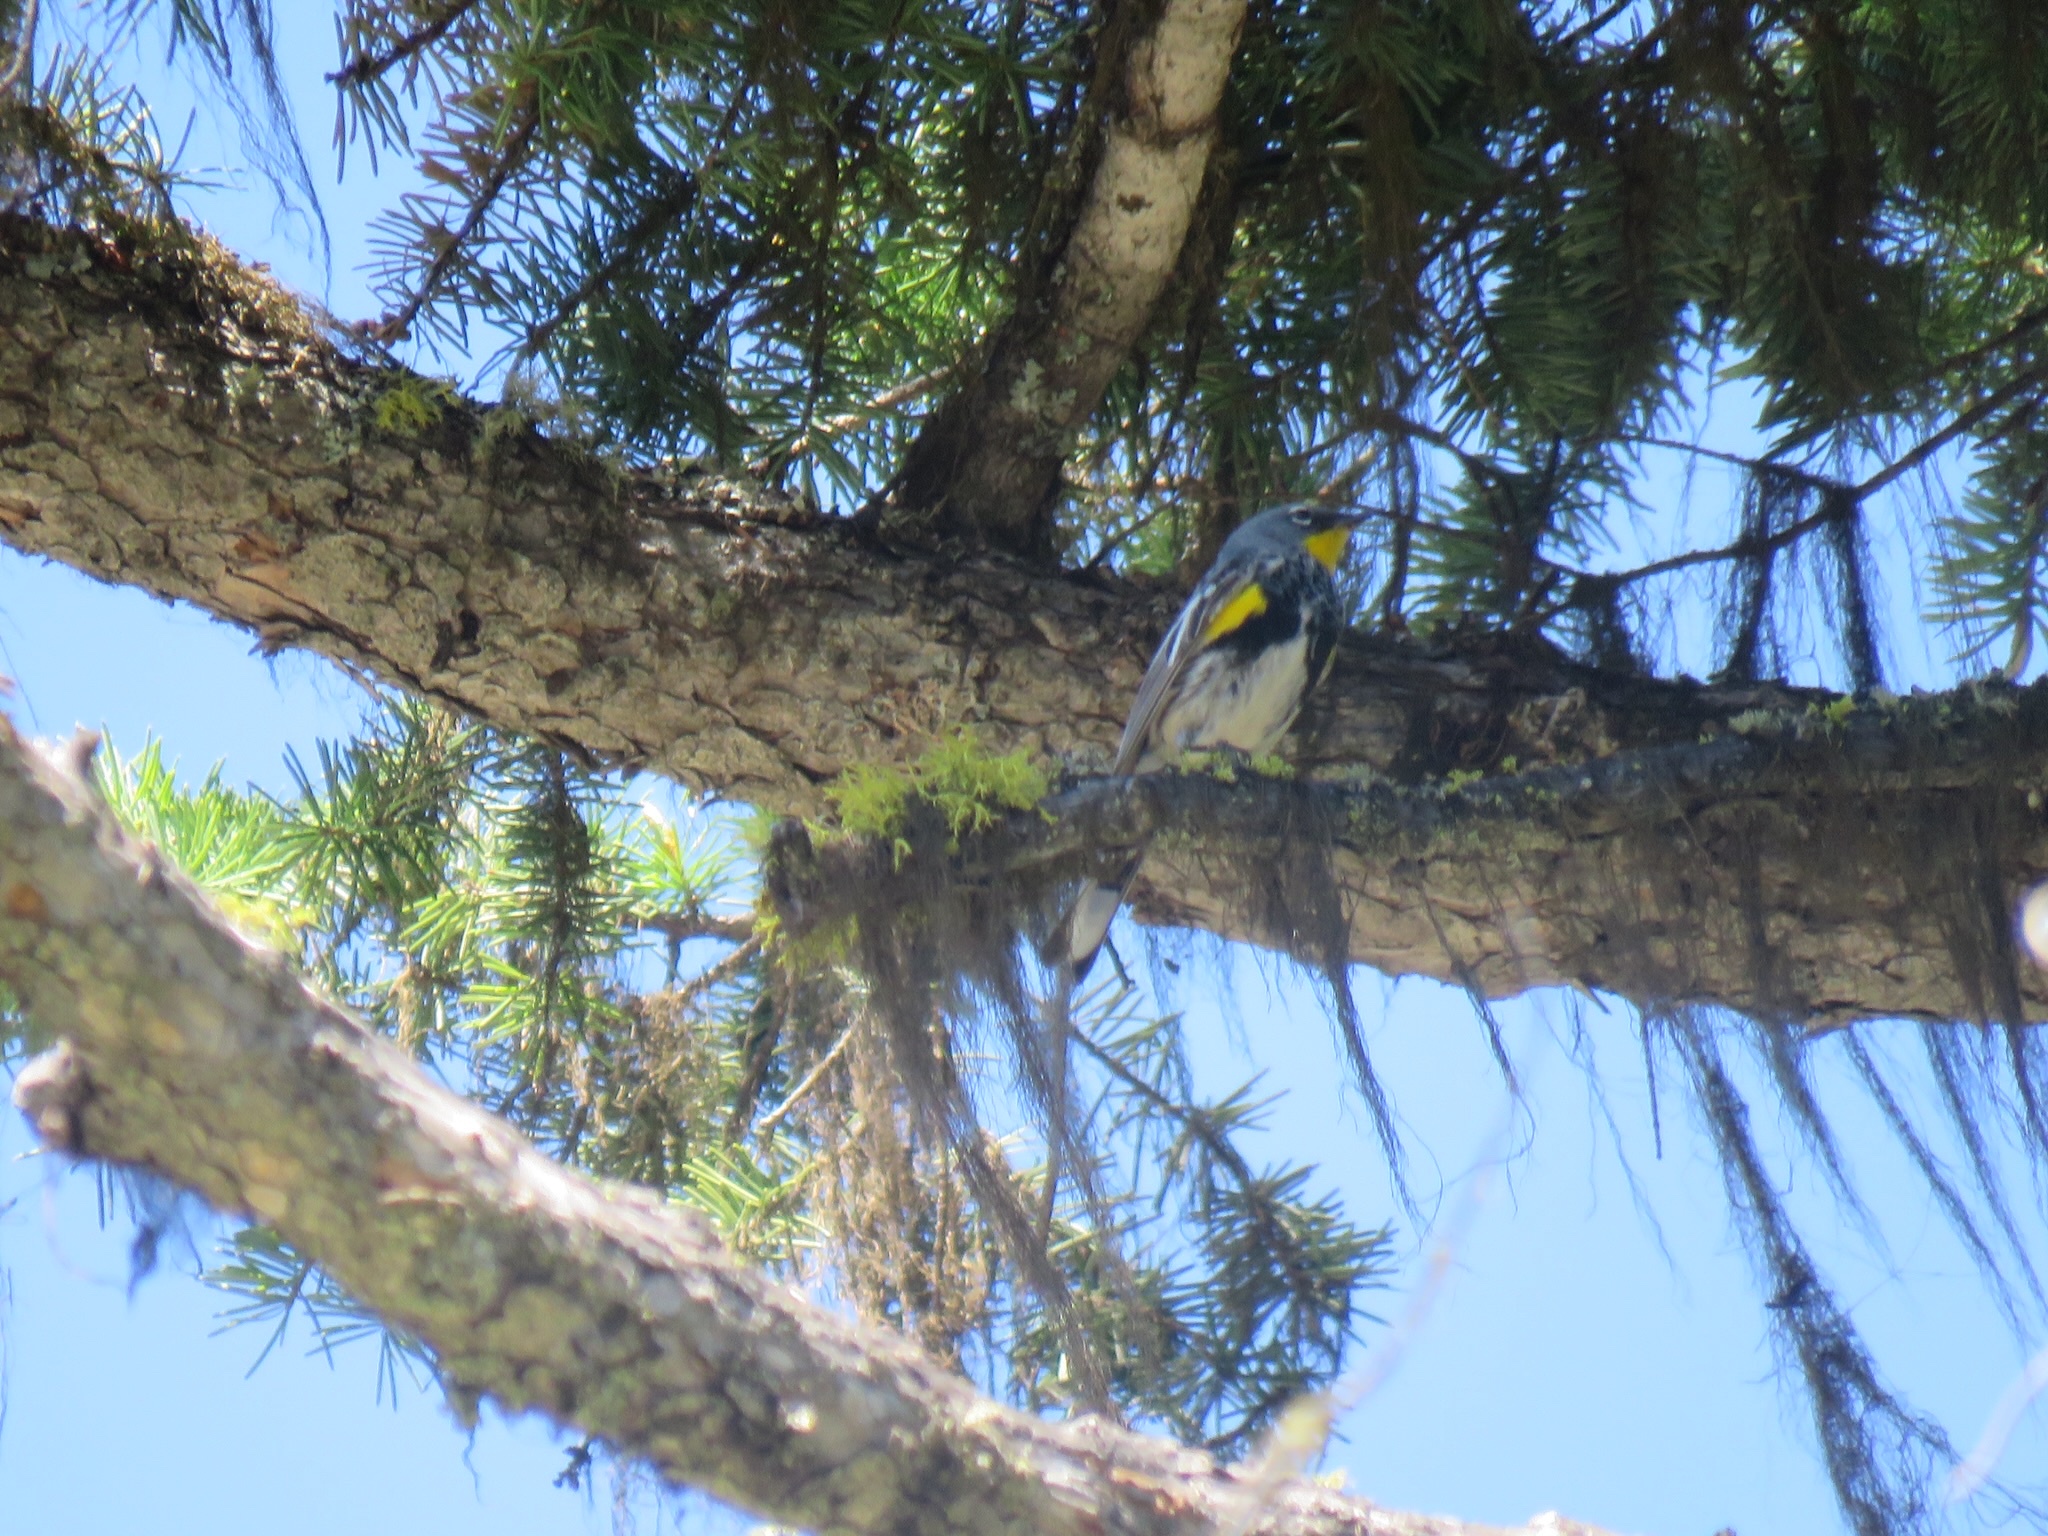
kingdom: Animalia
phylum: Chordata
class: Aves
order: Passeriformes
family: Parulidae
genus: Setophaga
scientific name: Setophaga coronata
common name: Myrtle warbler
